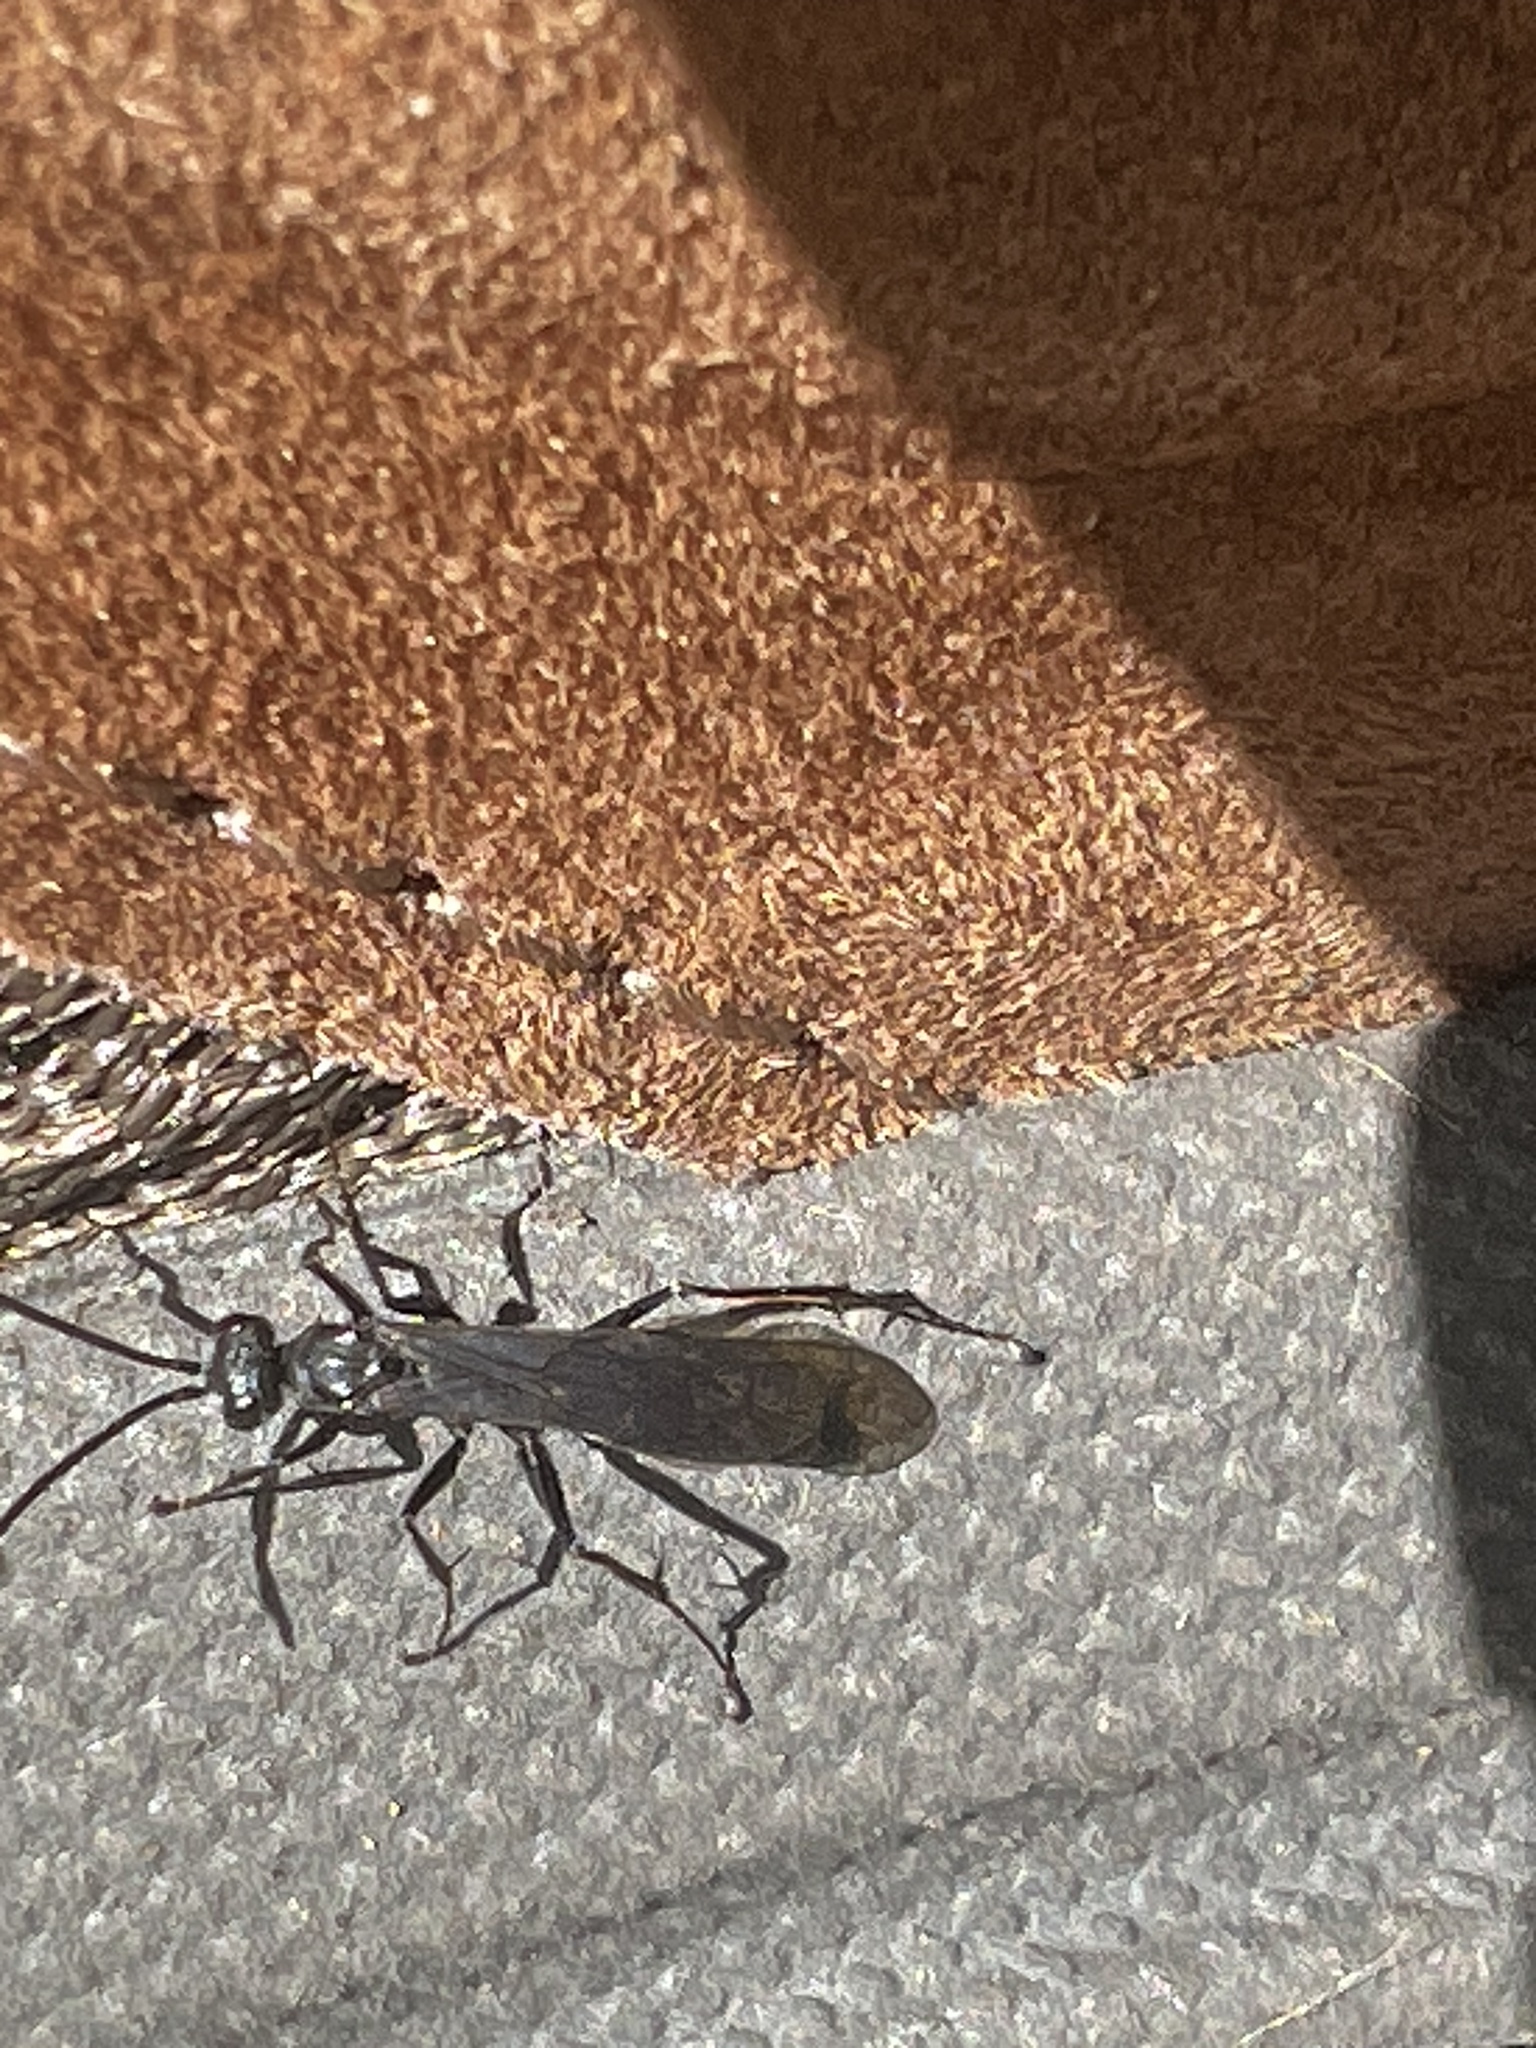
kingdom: Animalia
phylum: Arthropoda
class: Insecta
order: Hymenoptera
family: Pompilidae
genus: Priocnemis
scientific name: Priocnemis minorata
